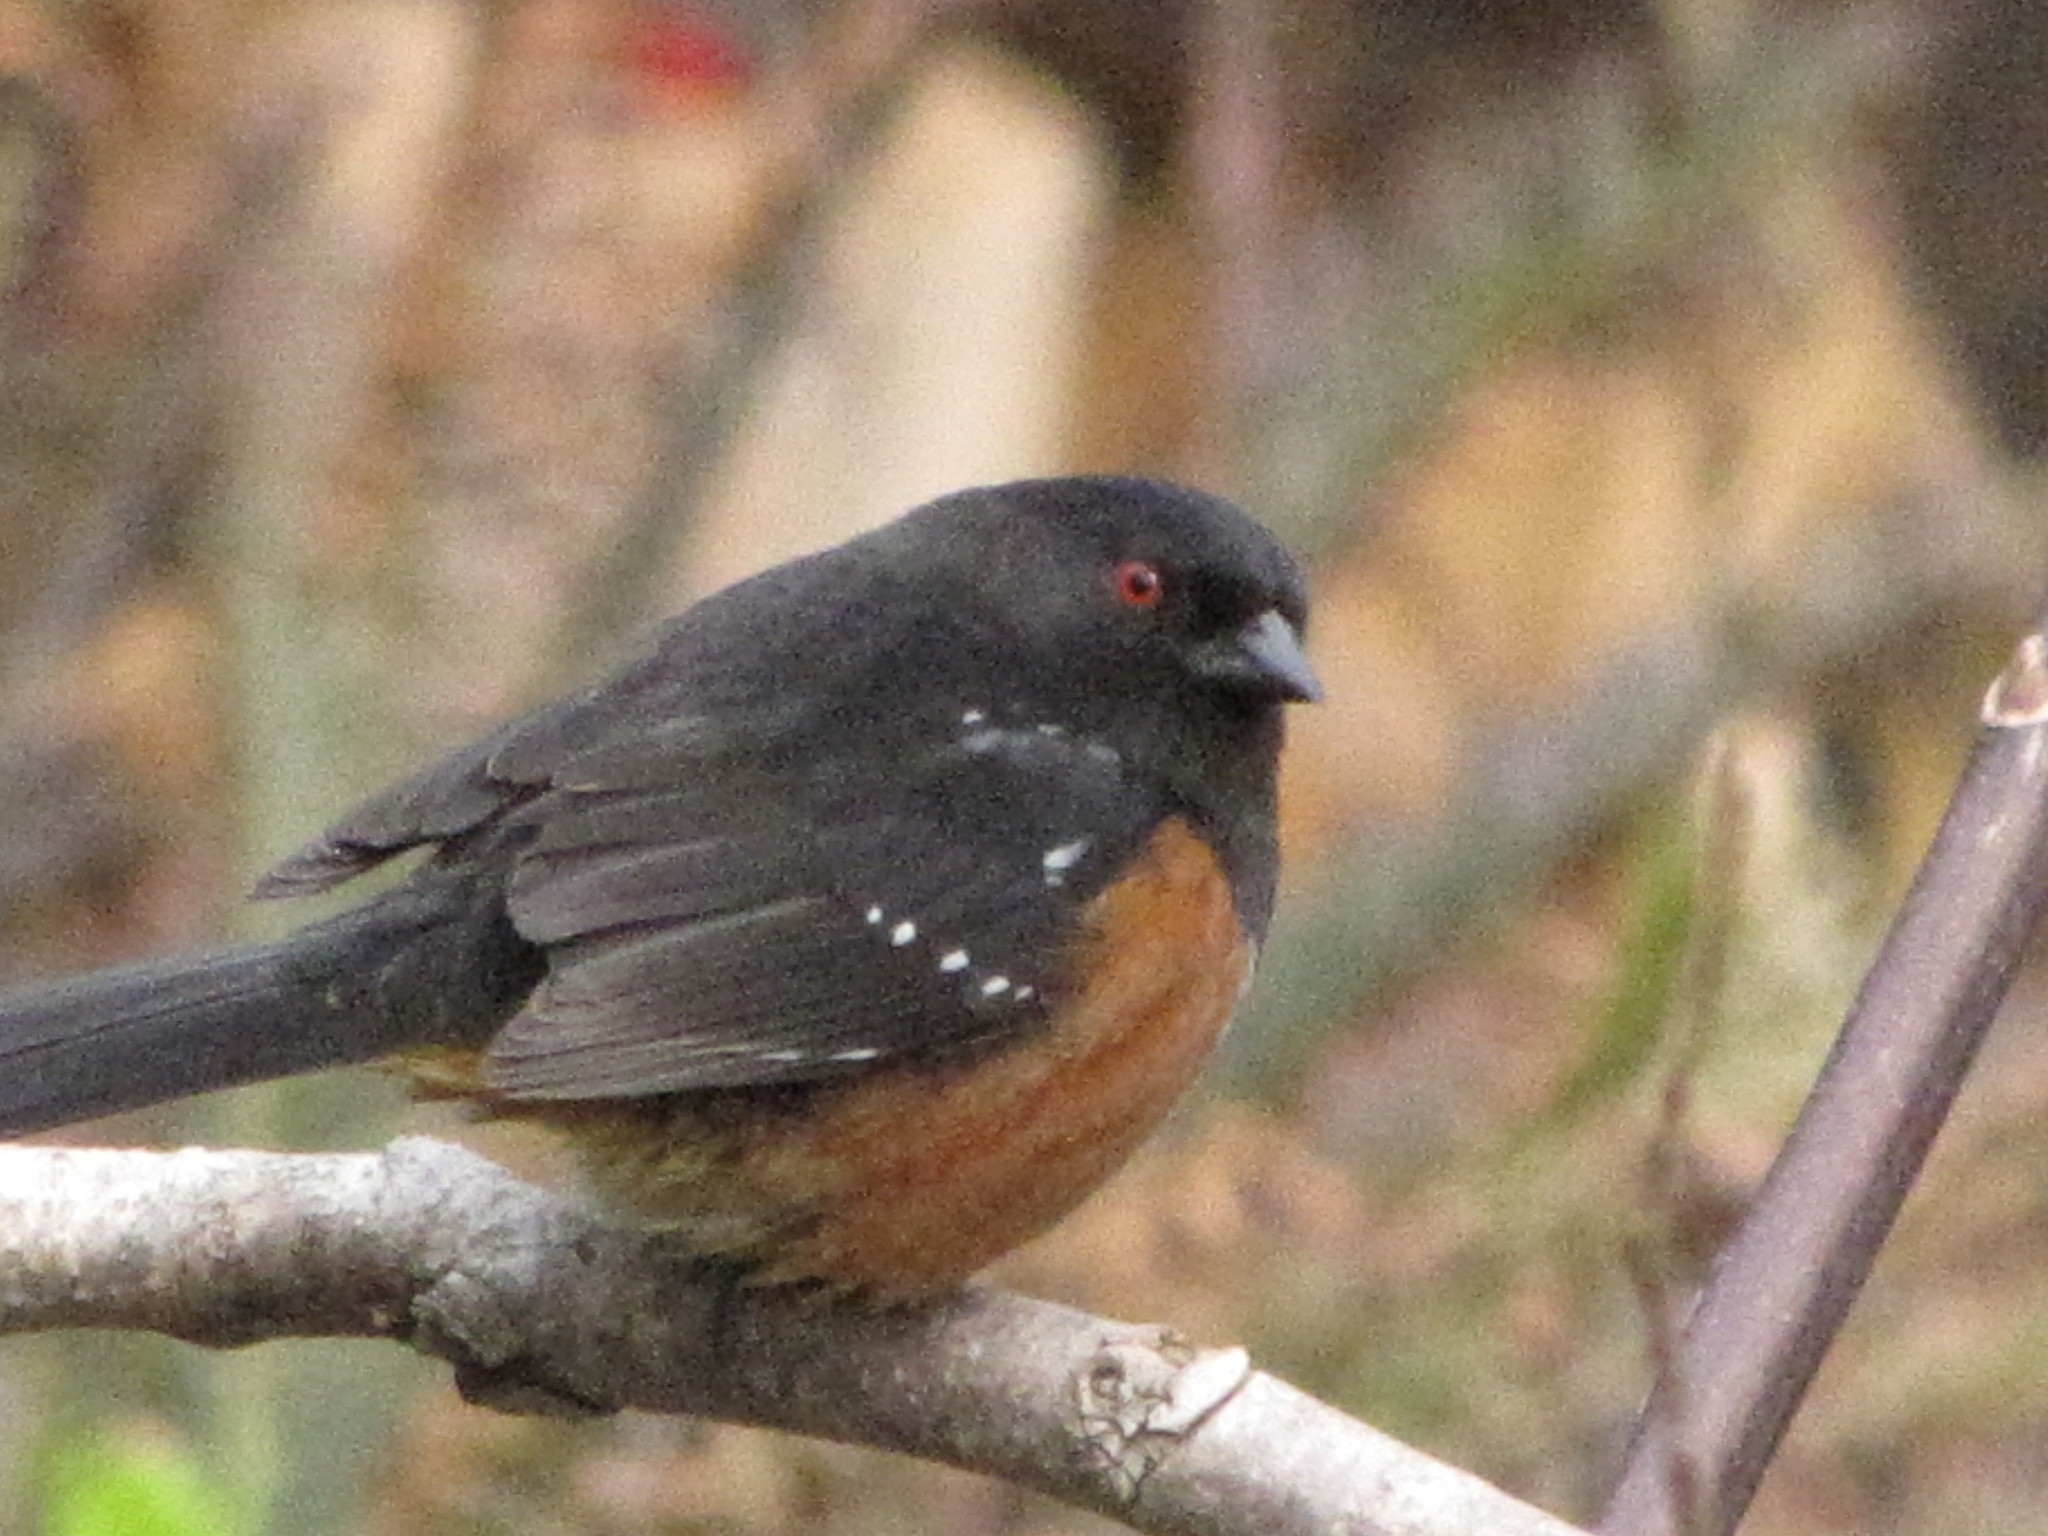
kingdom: Animalia
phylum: Chordata
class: Aves
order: Passeriformes
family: Passerellidae
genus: Pipilo
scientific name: Pipilo maculatus
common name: Spotted towhee
